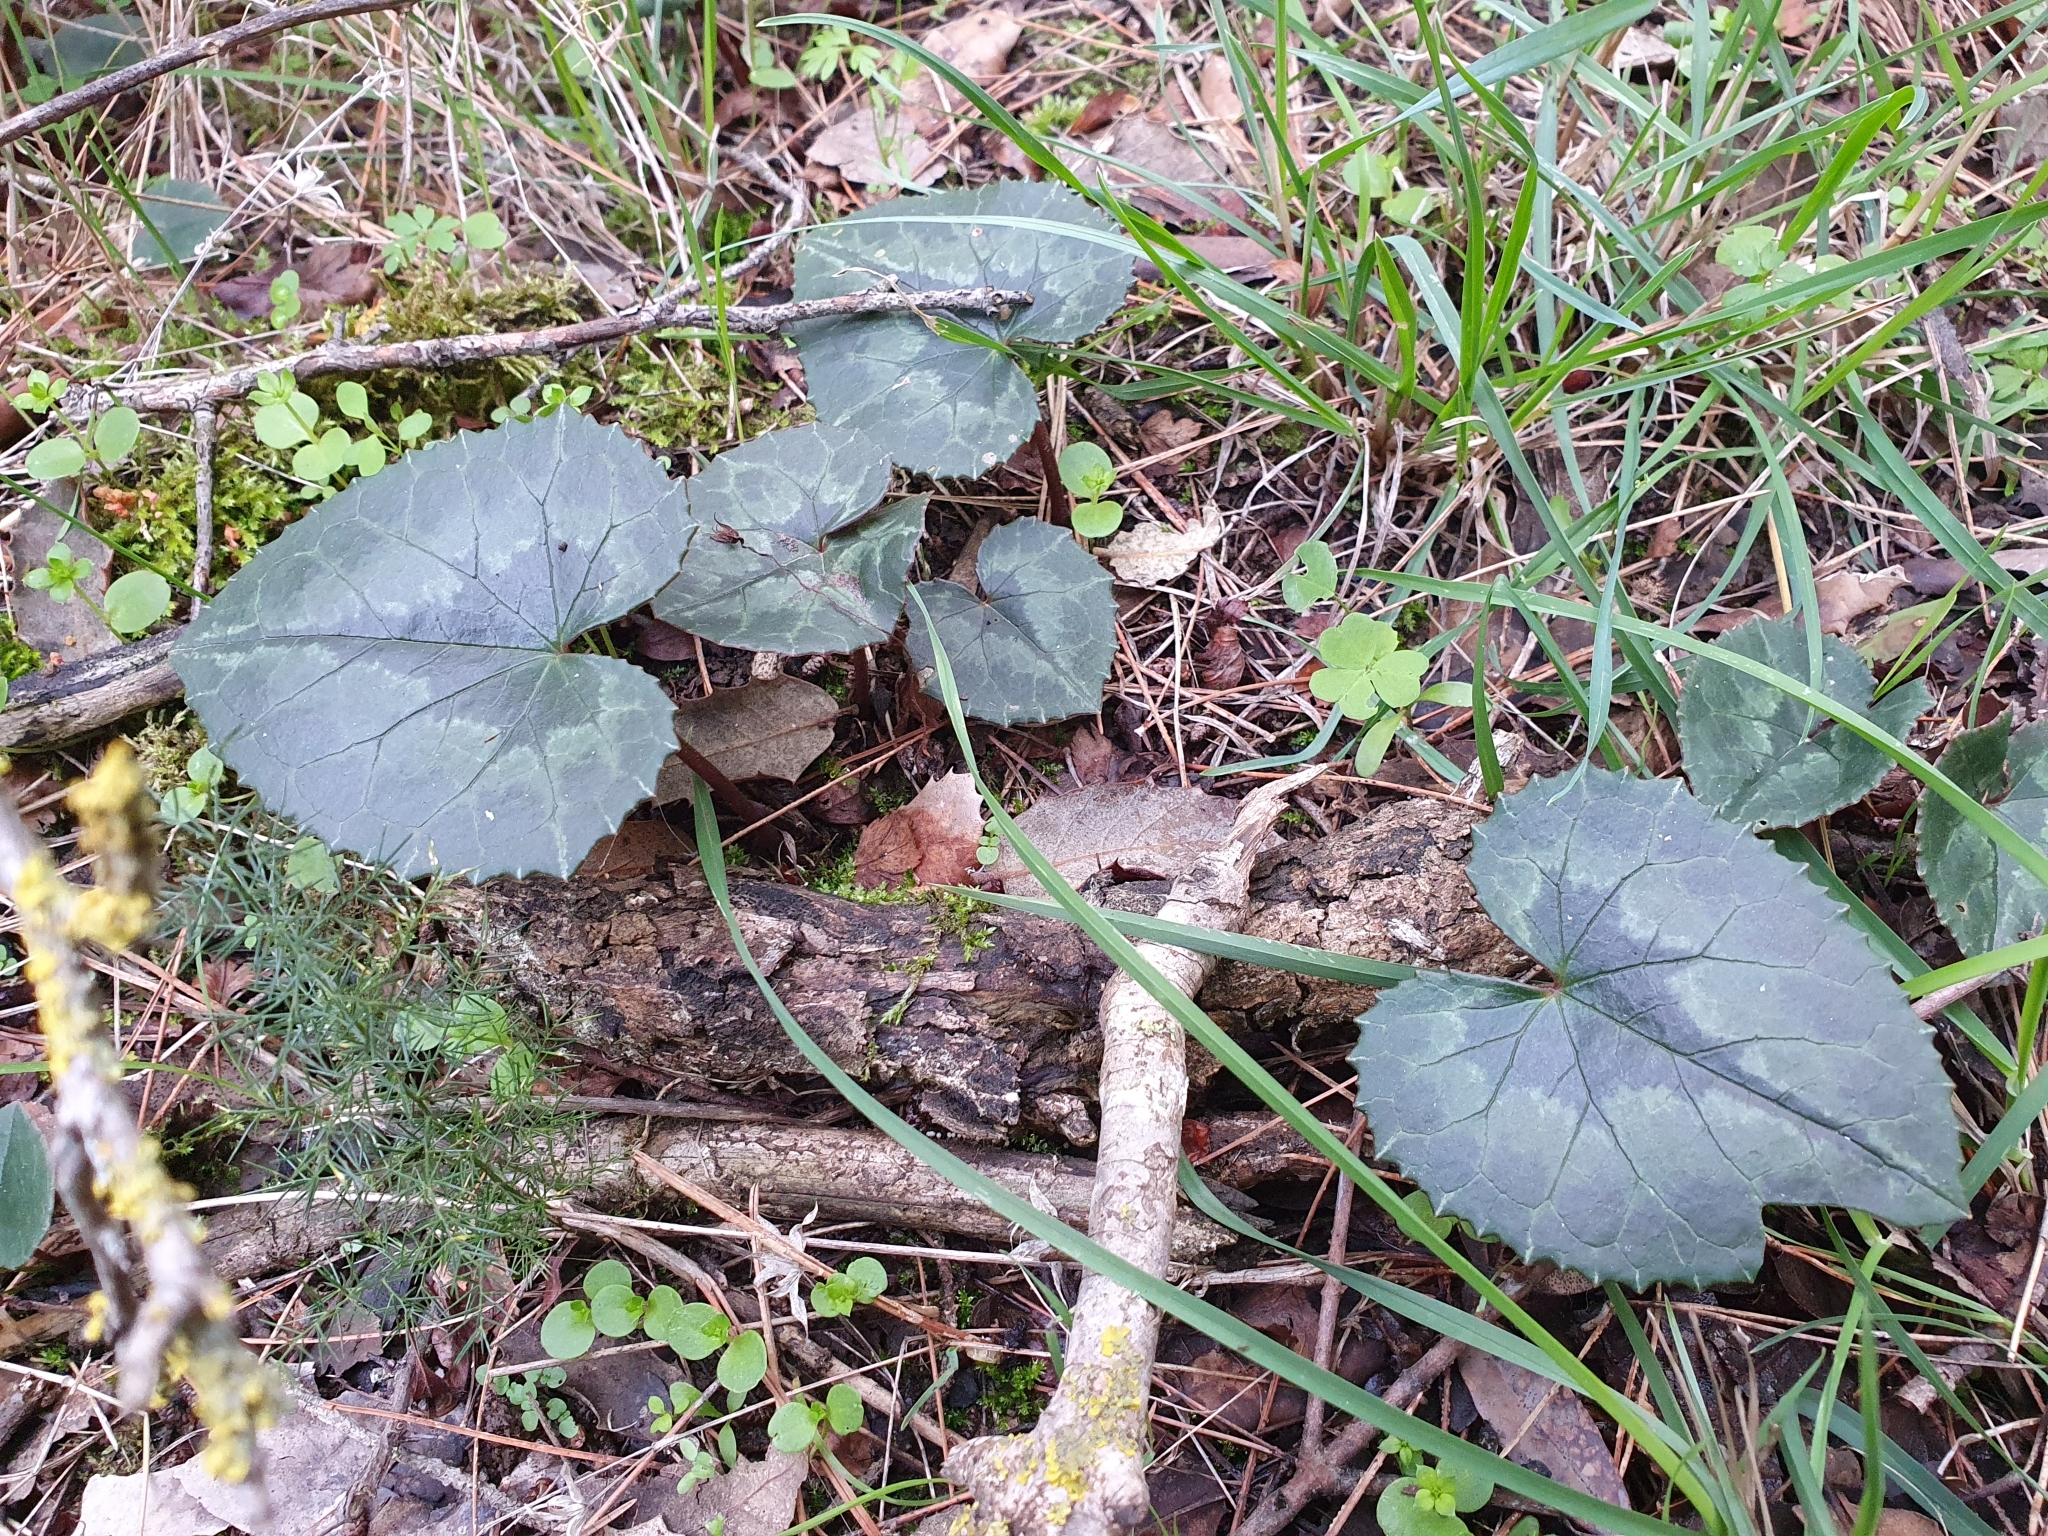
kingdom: Plantae
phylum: Tracheophyta
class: Magnoliopsida
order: Ericales
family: Primulaceae
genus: Cyclamen
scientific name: Cyclamen africanum
